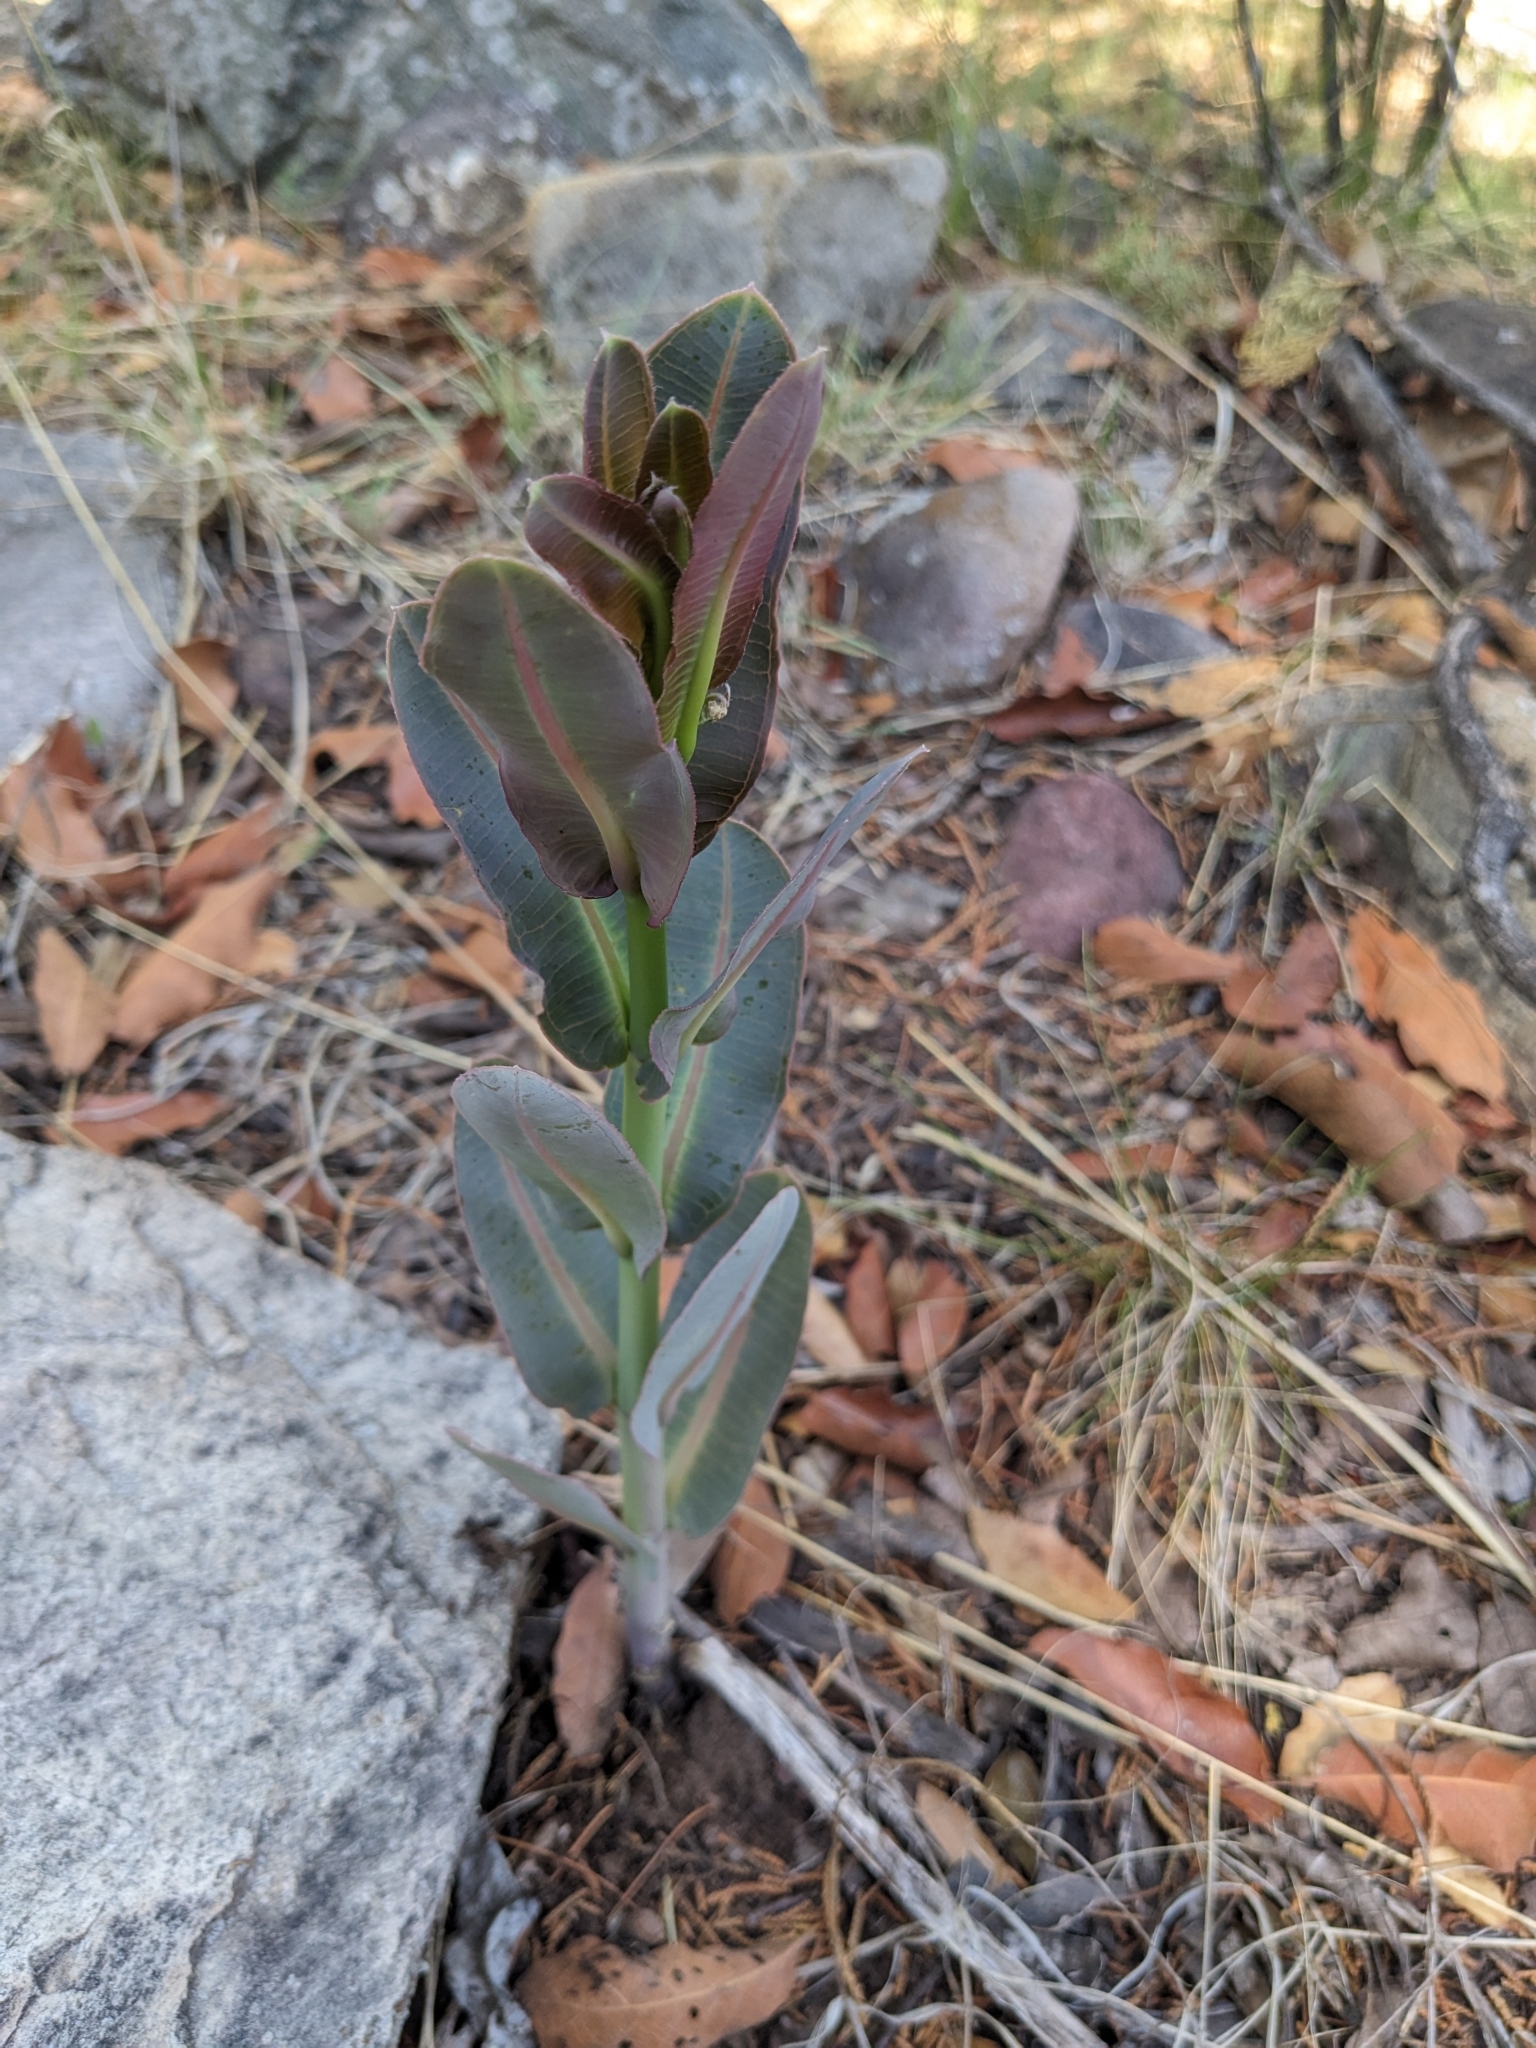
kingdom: Plantae
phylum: Tracheophyta
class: Magnoliopsida
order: Gentianales
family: Apocynaceae
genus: Asclepias
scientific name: Asclepias elata
